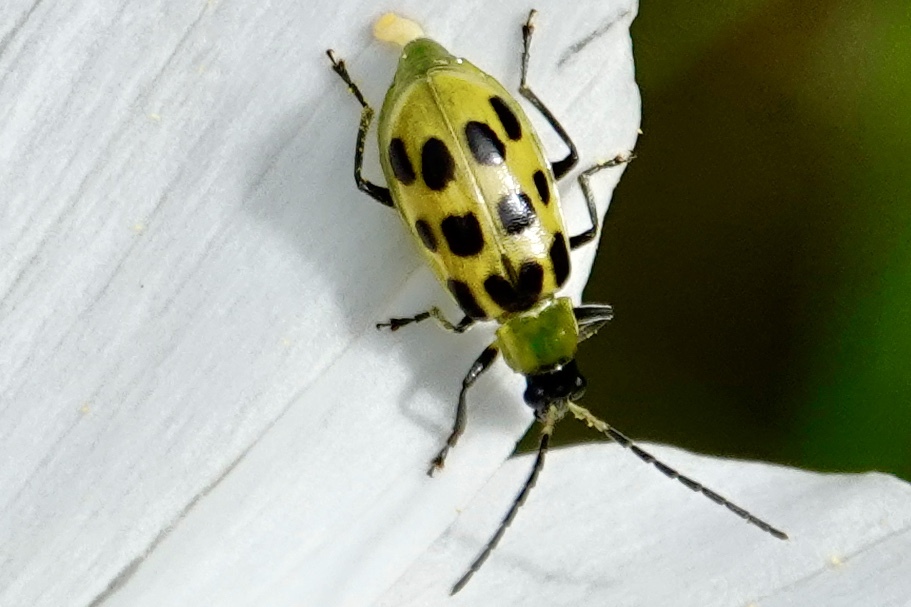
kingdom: Animalia
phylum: Arthropoda
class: Insecta
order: Coleoptera
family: Chrysomelidae
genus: Diabrotica
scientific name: Diabrotica undecimpunctata
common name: Spotted cucumber beetle
